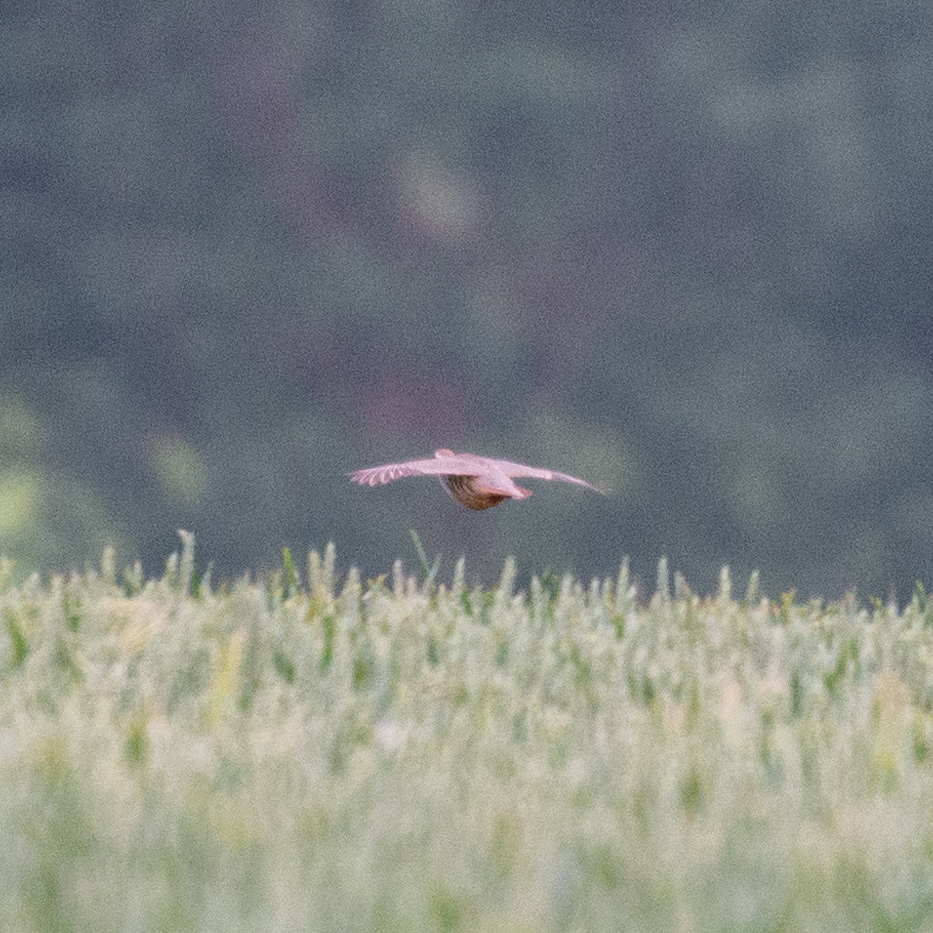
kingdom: Animalia
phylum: Chordata
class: Aves
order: Galliformes
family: Phasianidae
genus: Alectoris
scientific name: Alectoris rufa
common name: Red-legged partridge
